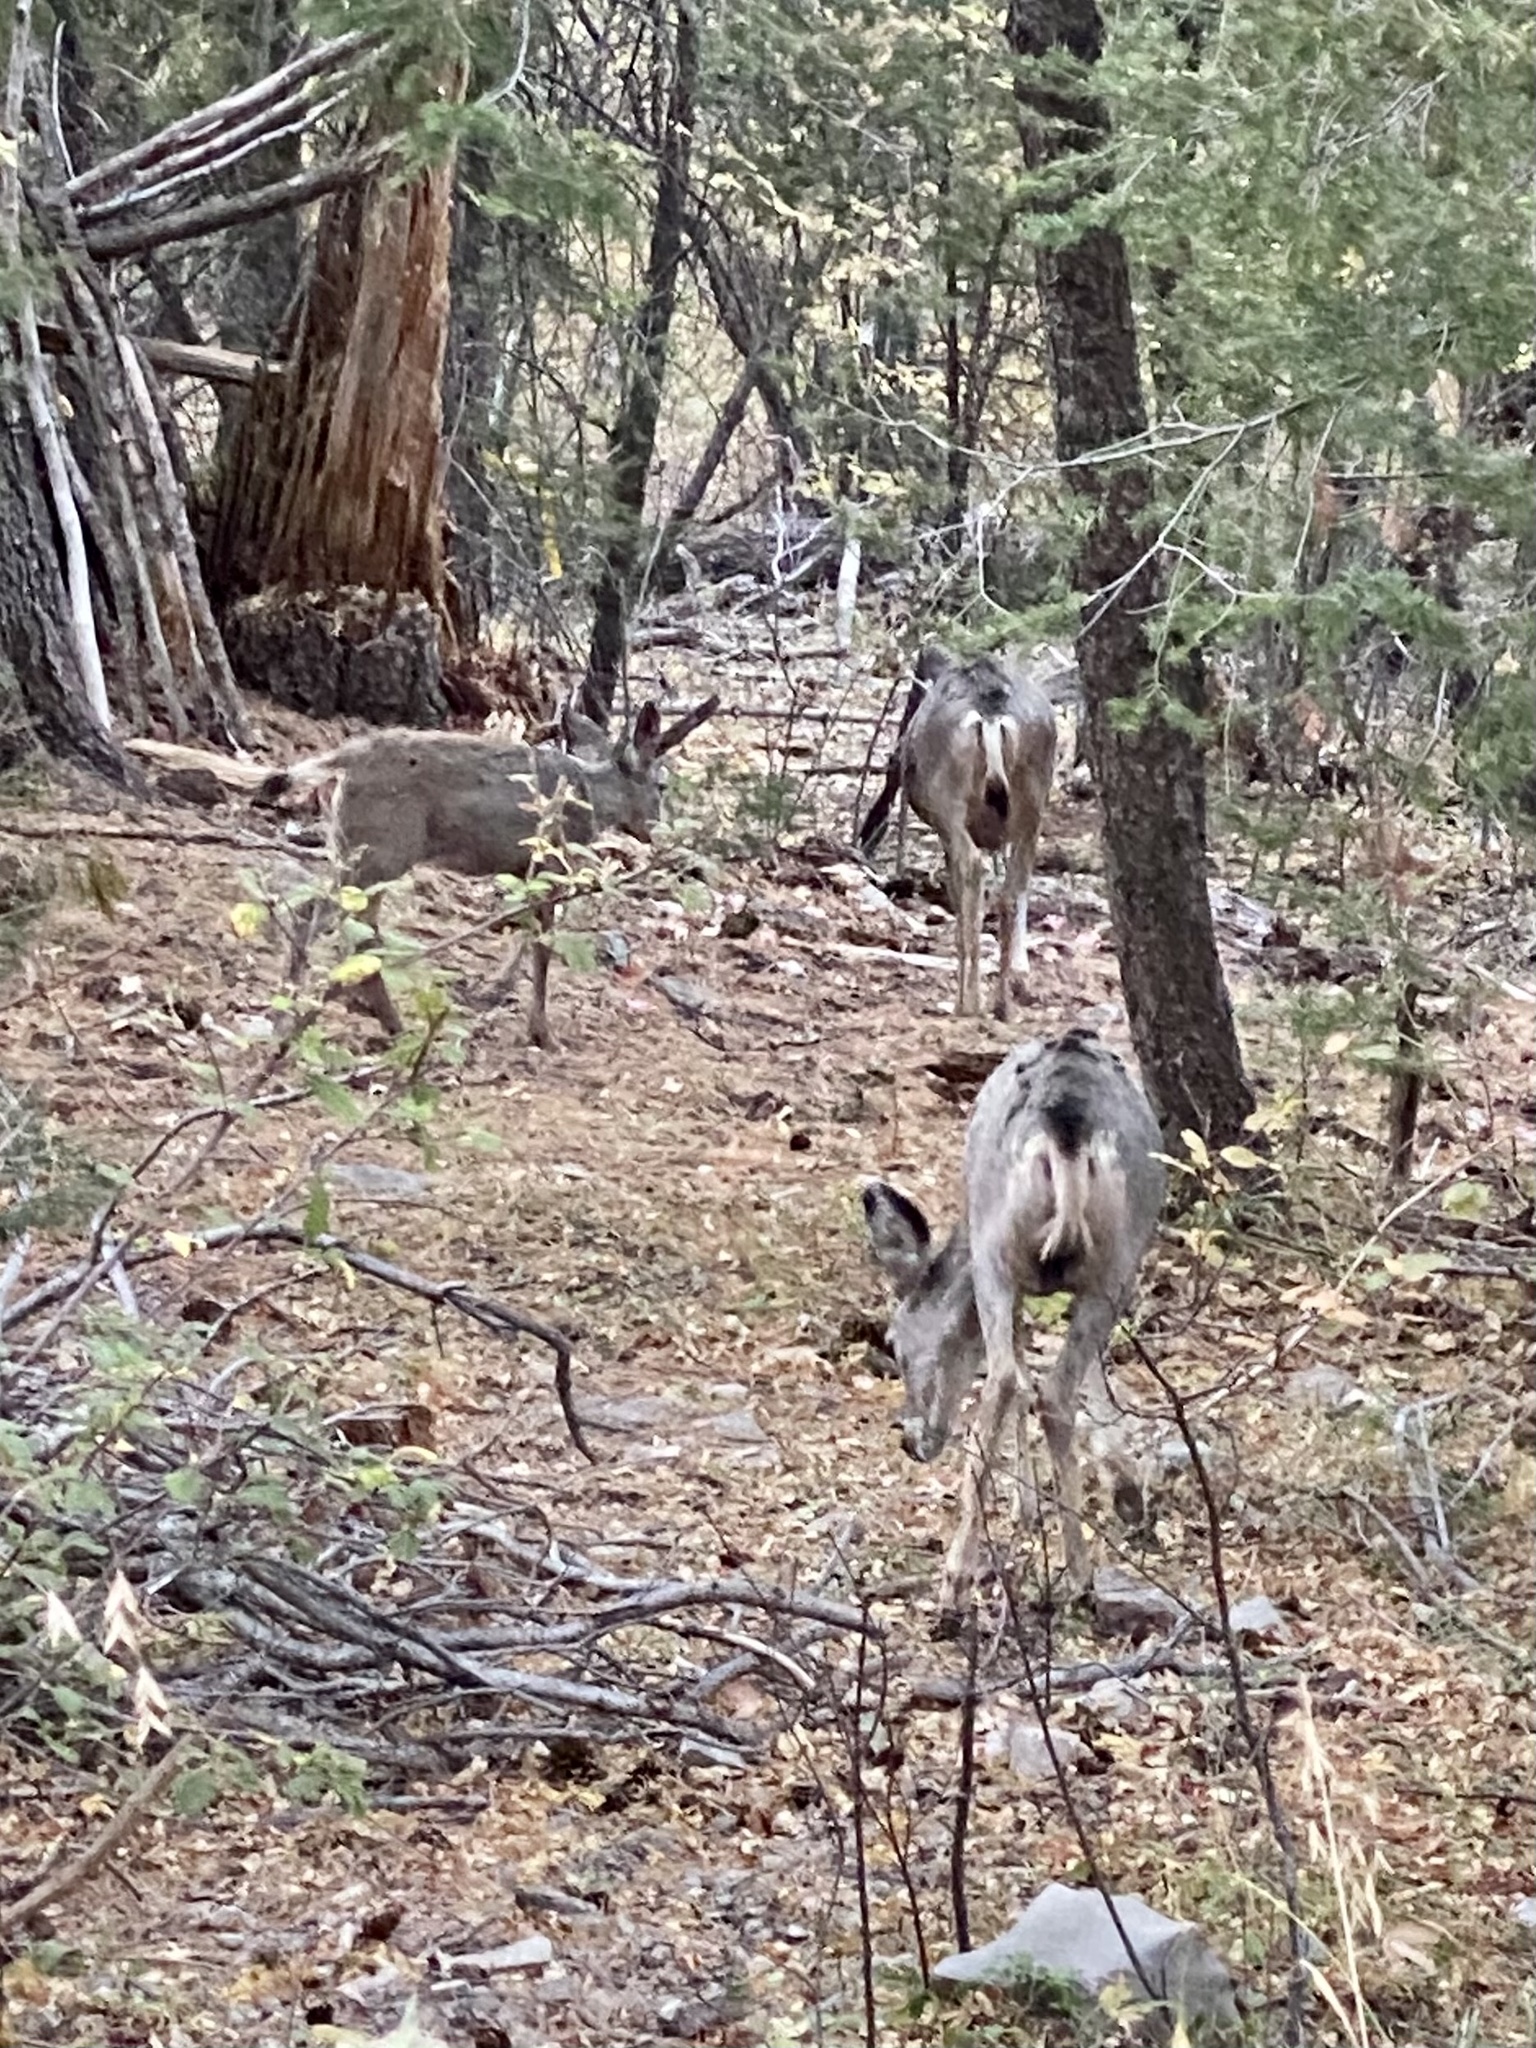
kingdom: Animalia
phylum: Chordata
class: Mammalia
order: Artiodactyla
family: Cervidae
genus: Odocoileus
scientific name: Odocoileus hemionus
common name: Mule deer
